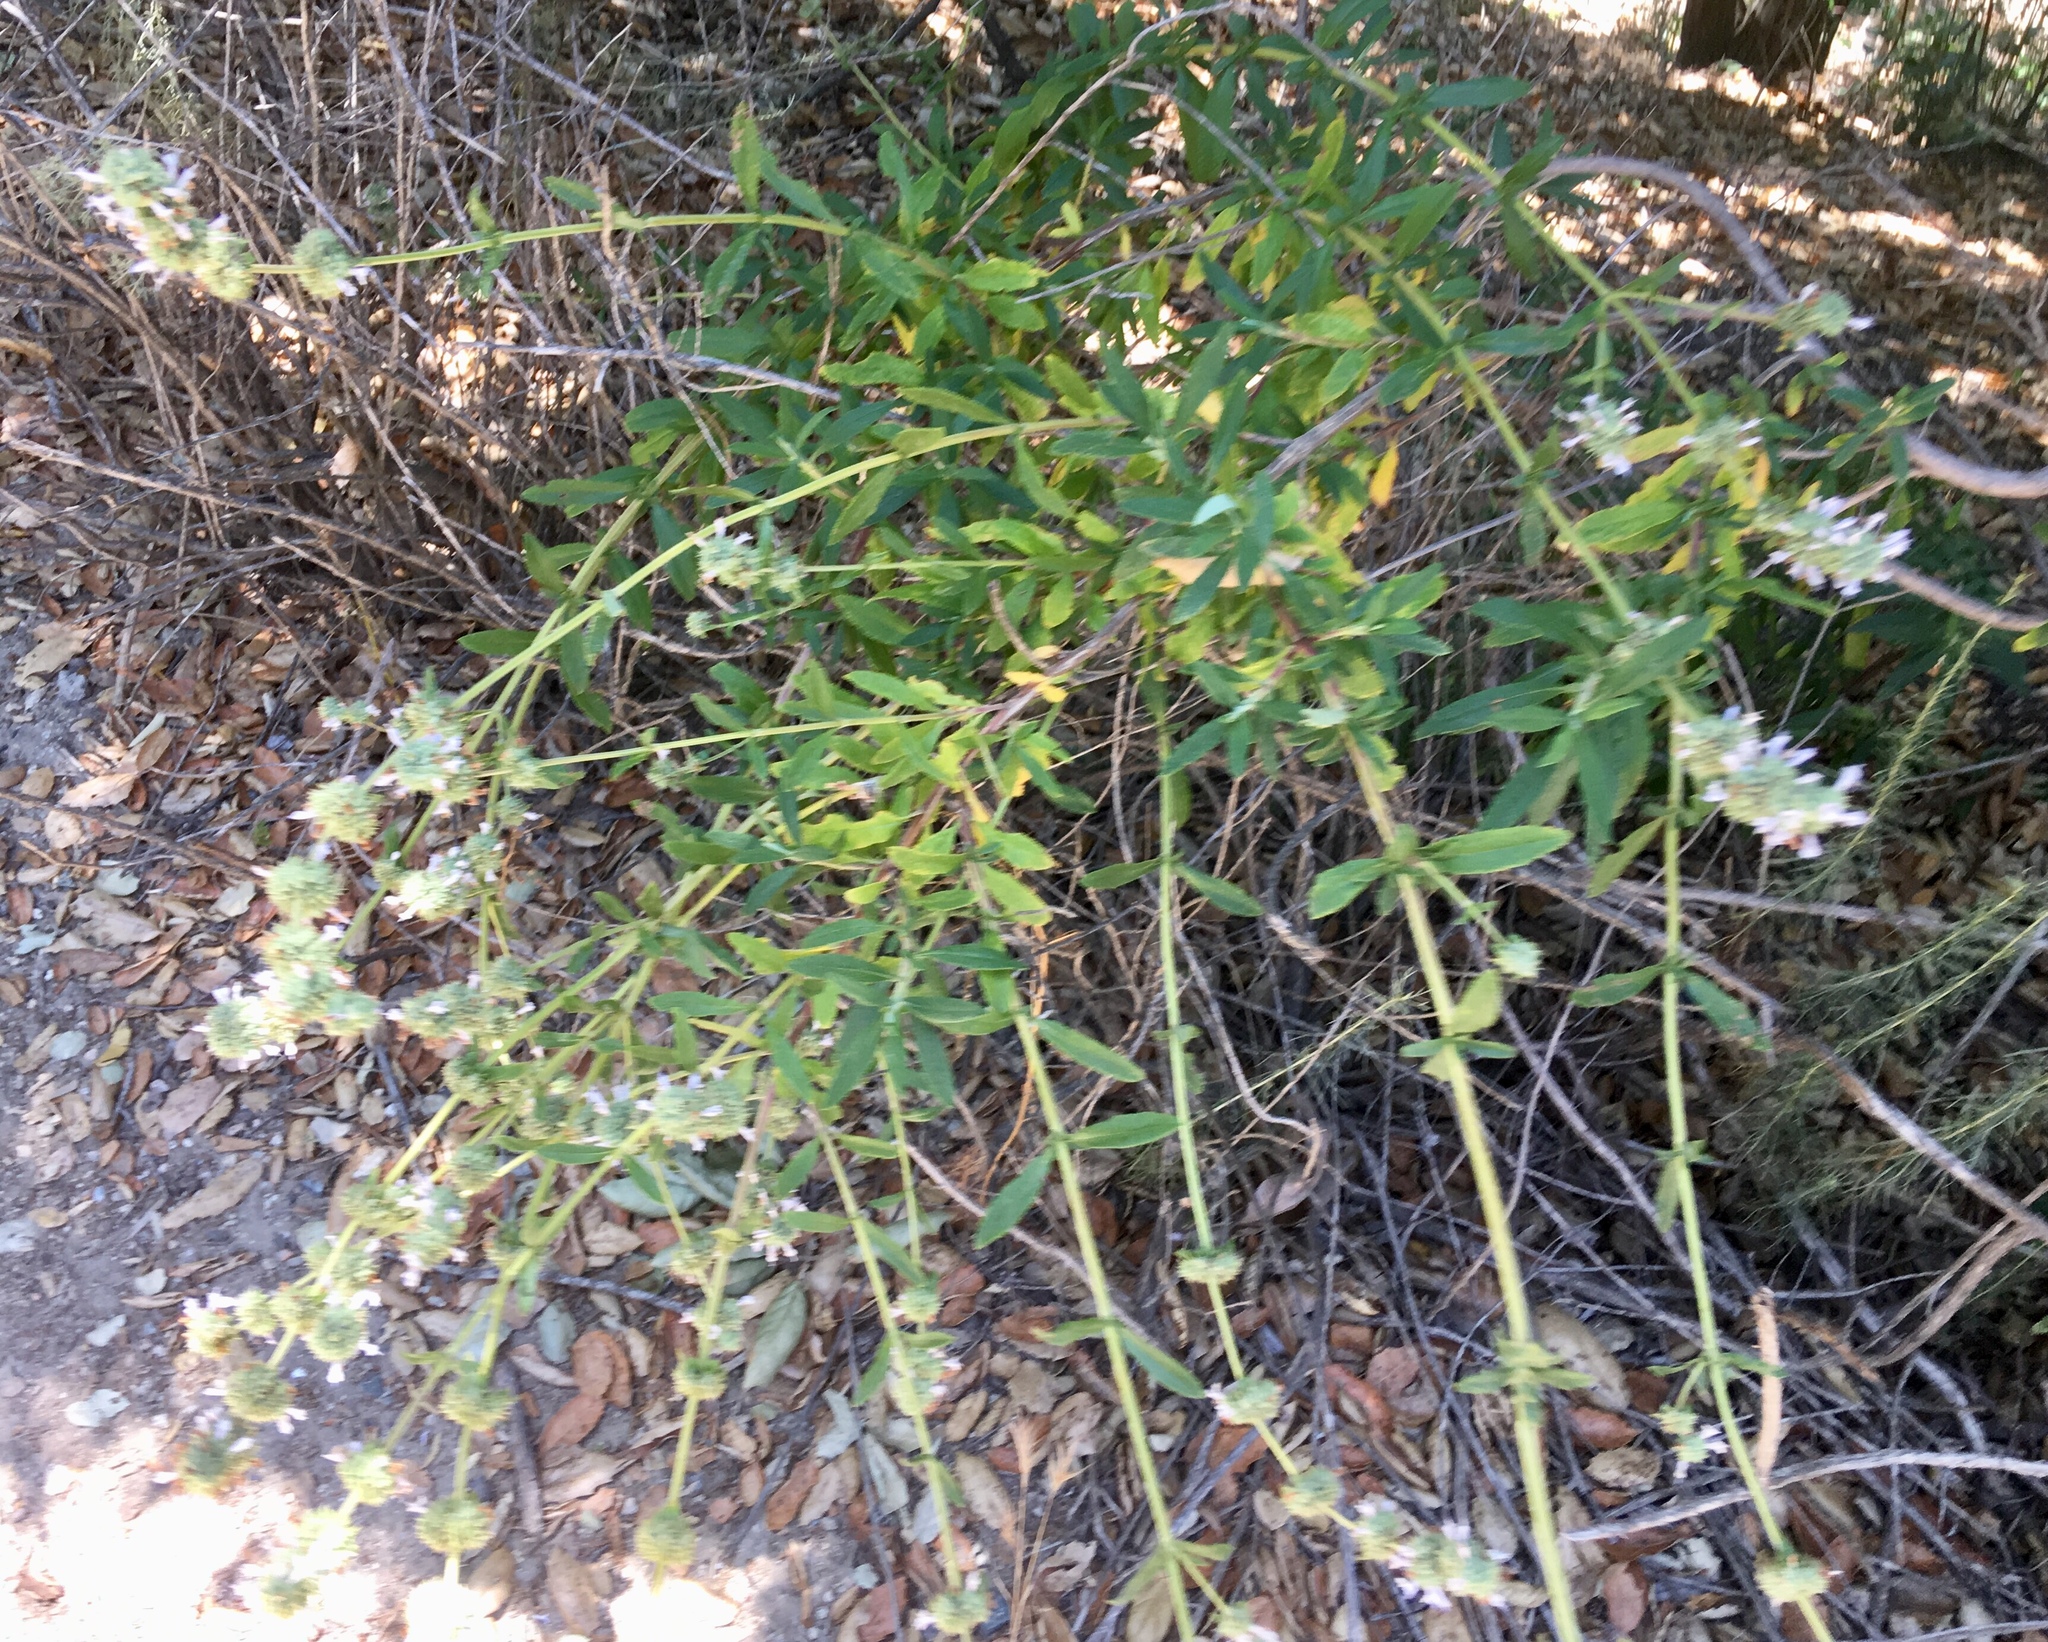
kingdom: Plantae
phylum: Tracheophyta
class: Magnoliopsida
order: Lamiales
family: Lamiaceae
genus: Salvia
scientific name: Salvia mellifera
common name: Black sage
